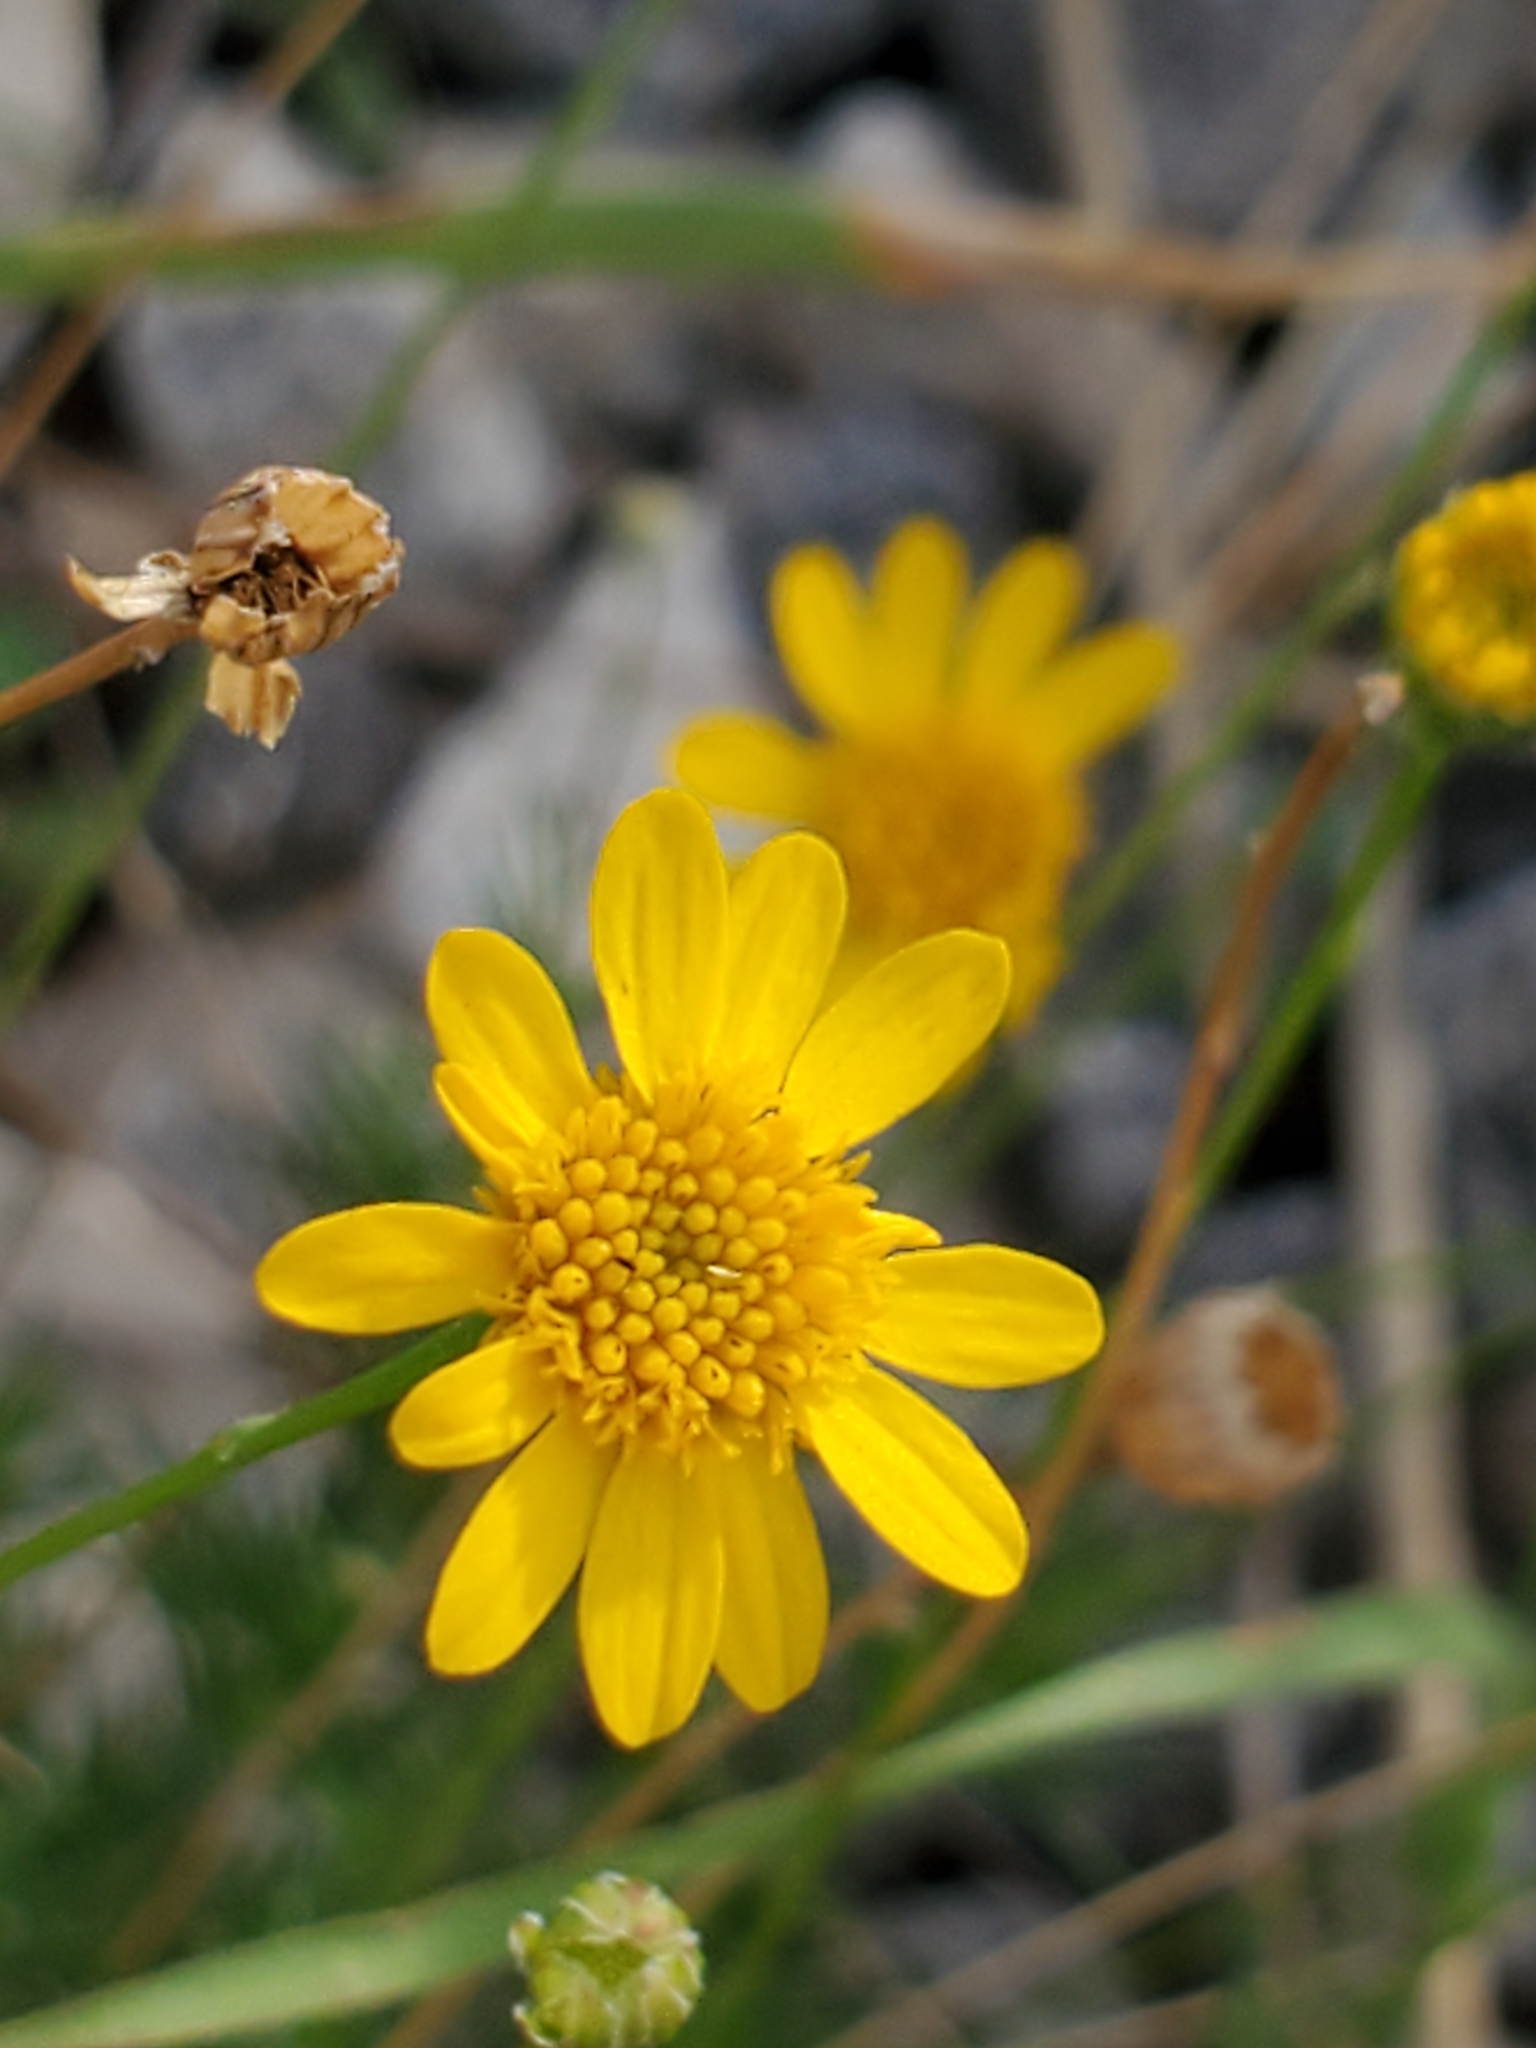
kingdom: Plantae
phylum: Tracheophyta
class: Magnoliopsida
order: Asterales
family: Asteraceae
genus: Thymophylla
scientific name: Thymophylla pentachaeta
